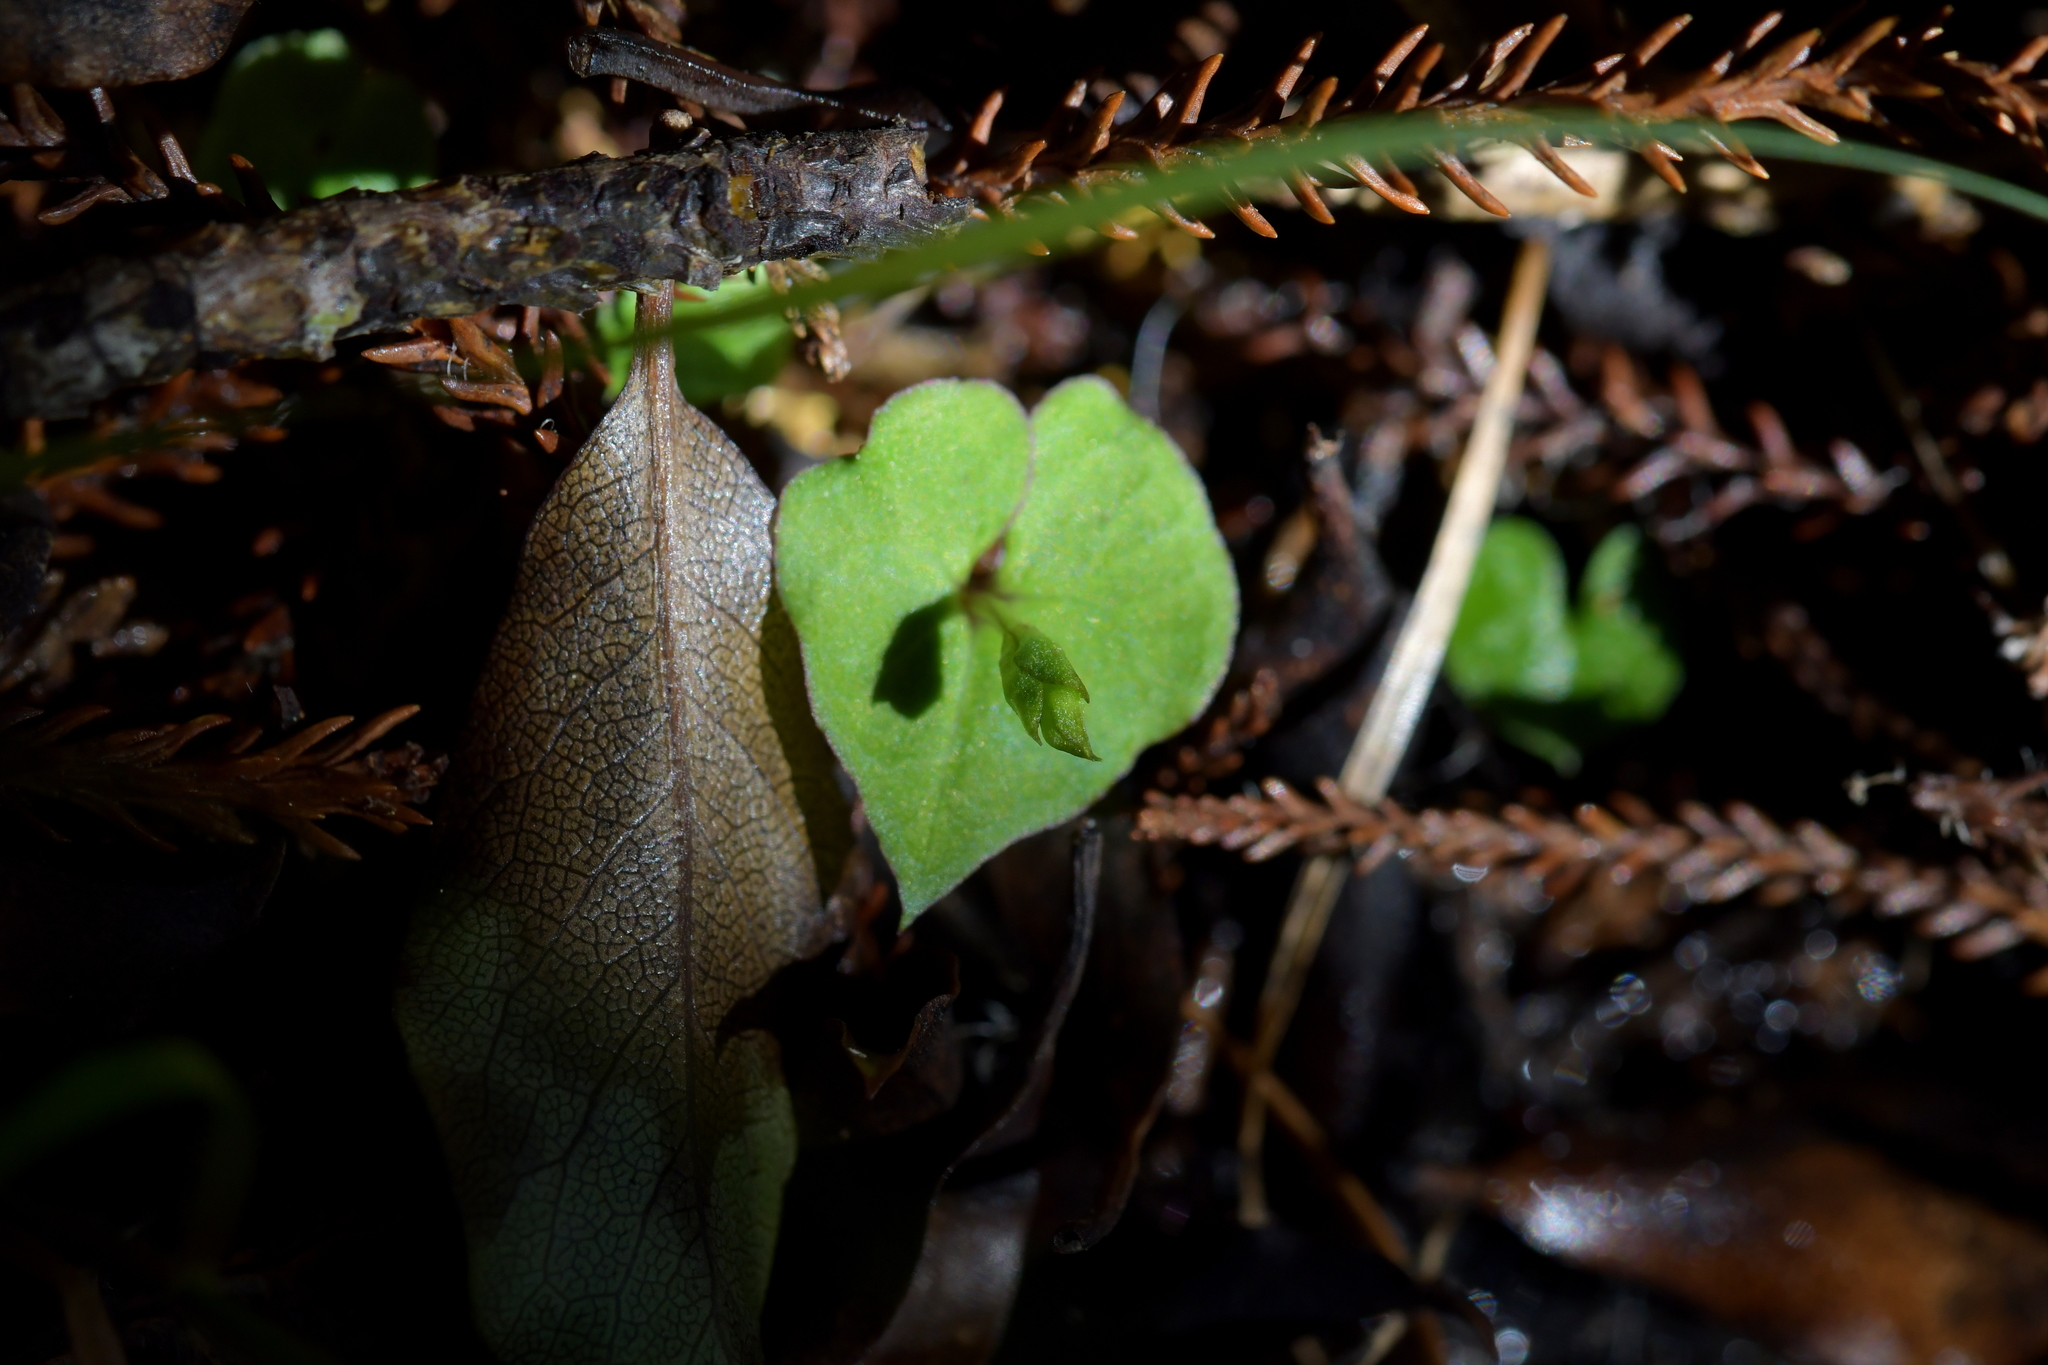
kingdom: Plantae
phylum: Tracheophyta
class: Liliopsida
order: Asparagales
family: Orchidaceae
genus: Acianthus
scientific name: Acianthus sinclairii
